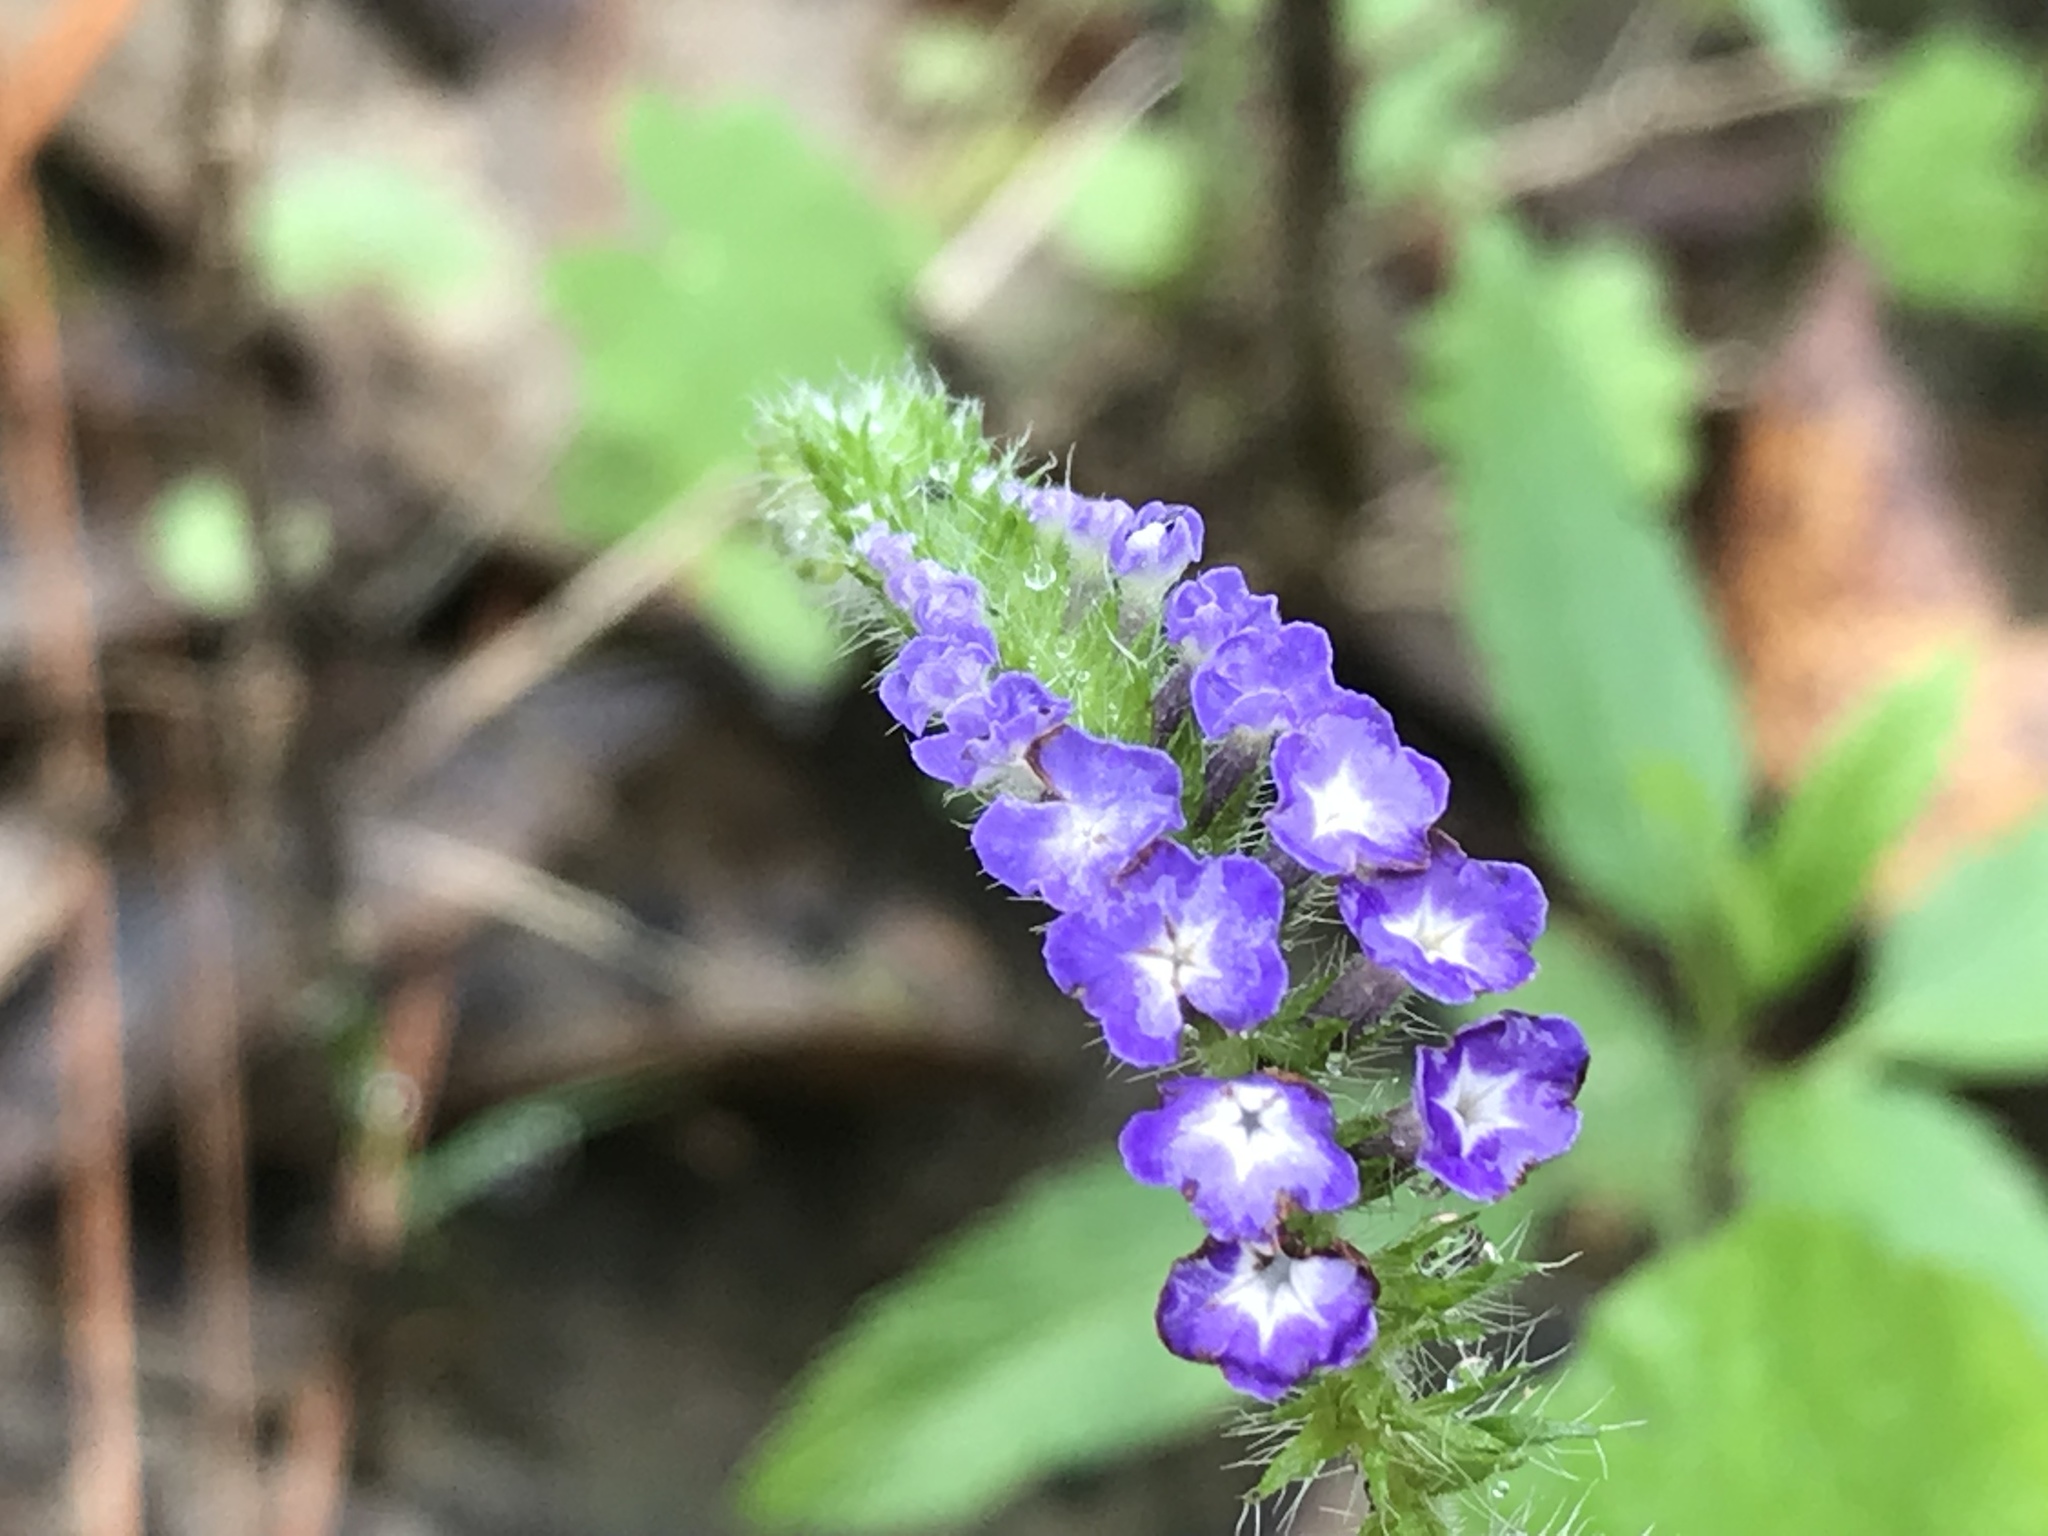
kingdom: Plantae
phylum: Tracheophyta
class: Magnoliopsida
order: Boraginales
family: Heliotropiaceae
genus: Heliotropium
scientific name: Heliotropium indicum
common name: Indian heliotrope
